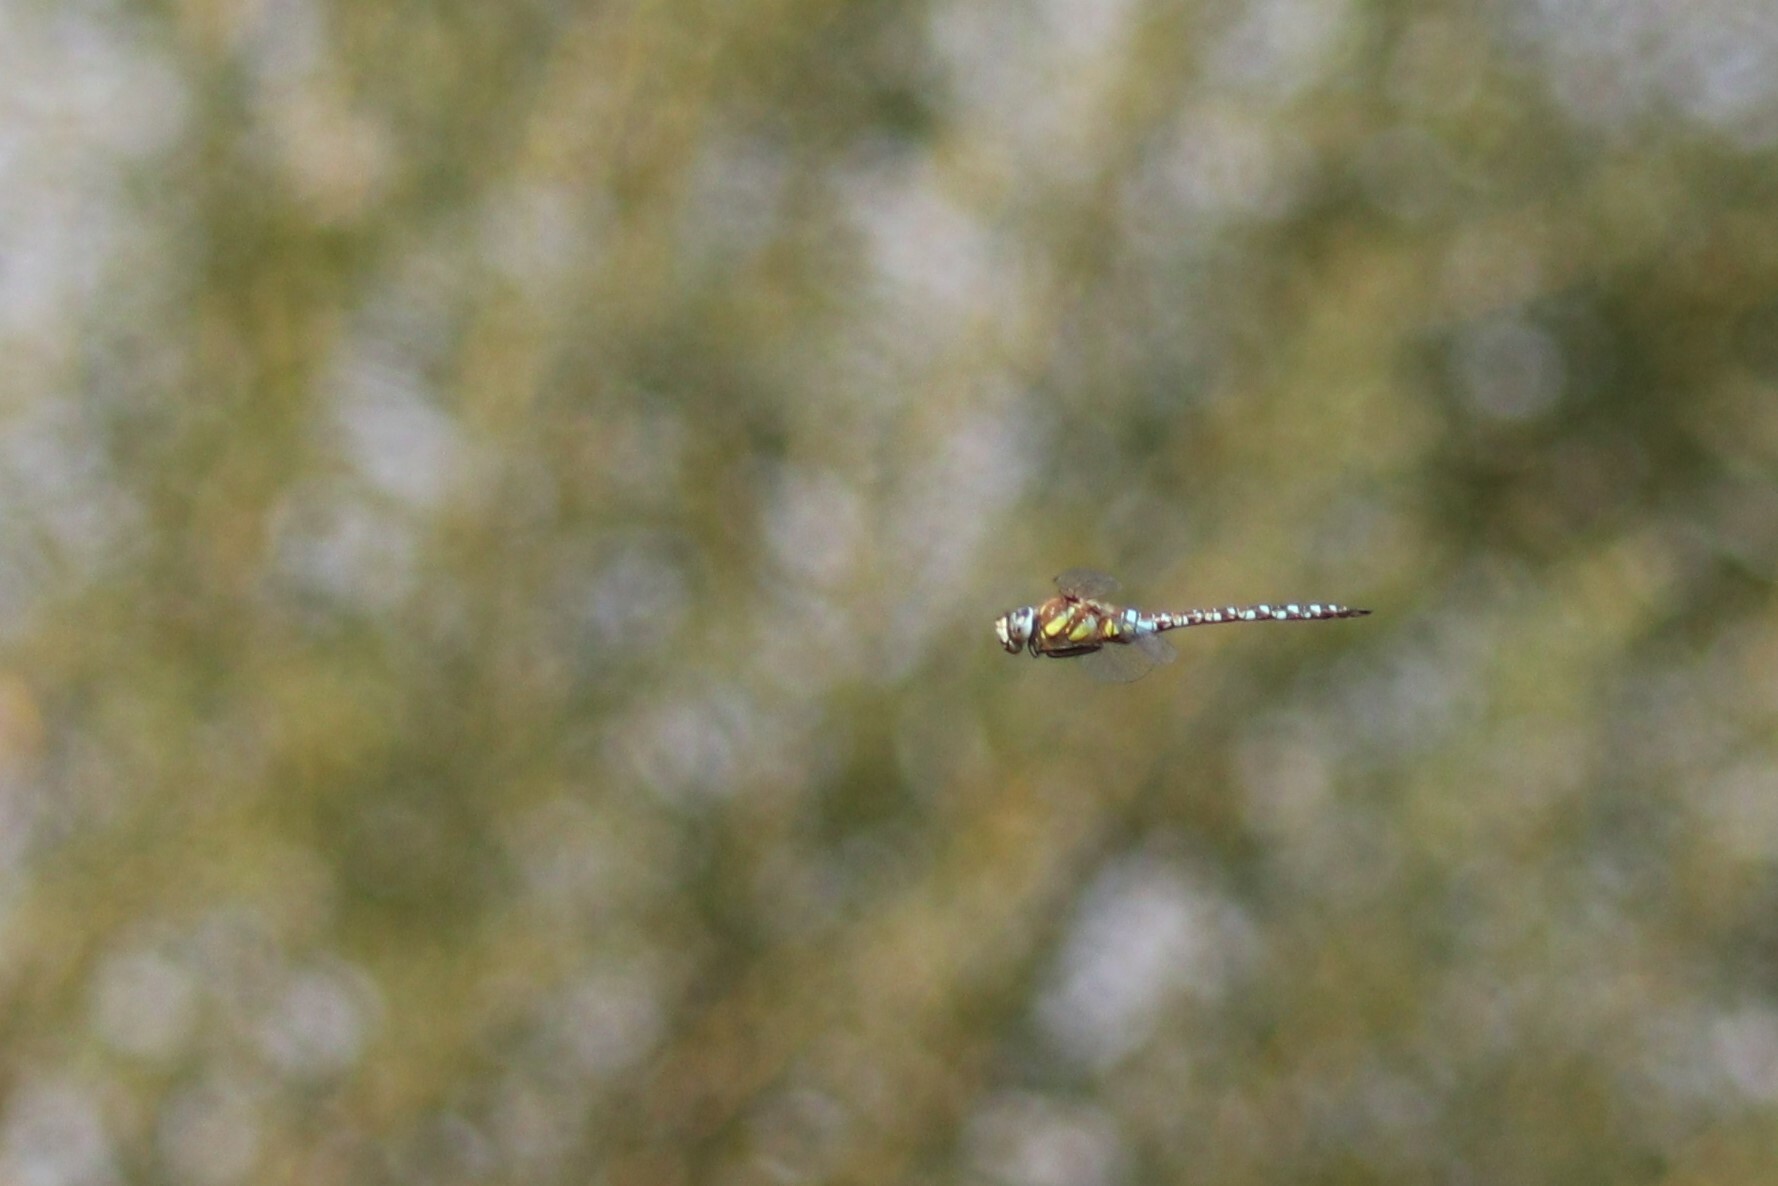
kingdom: Animalia
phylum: Arthropoda
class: Insecta
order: Odonata
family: Aeshnidae
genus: Aeshna
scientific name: Aeshna mixta
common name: Migrant hawker
